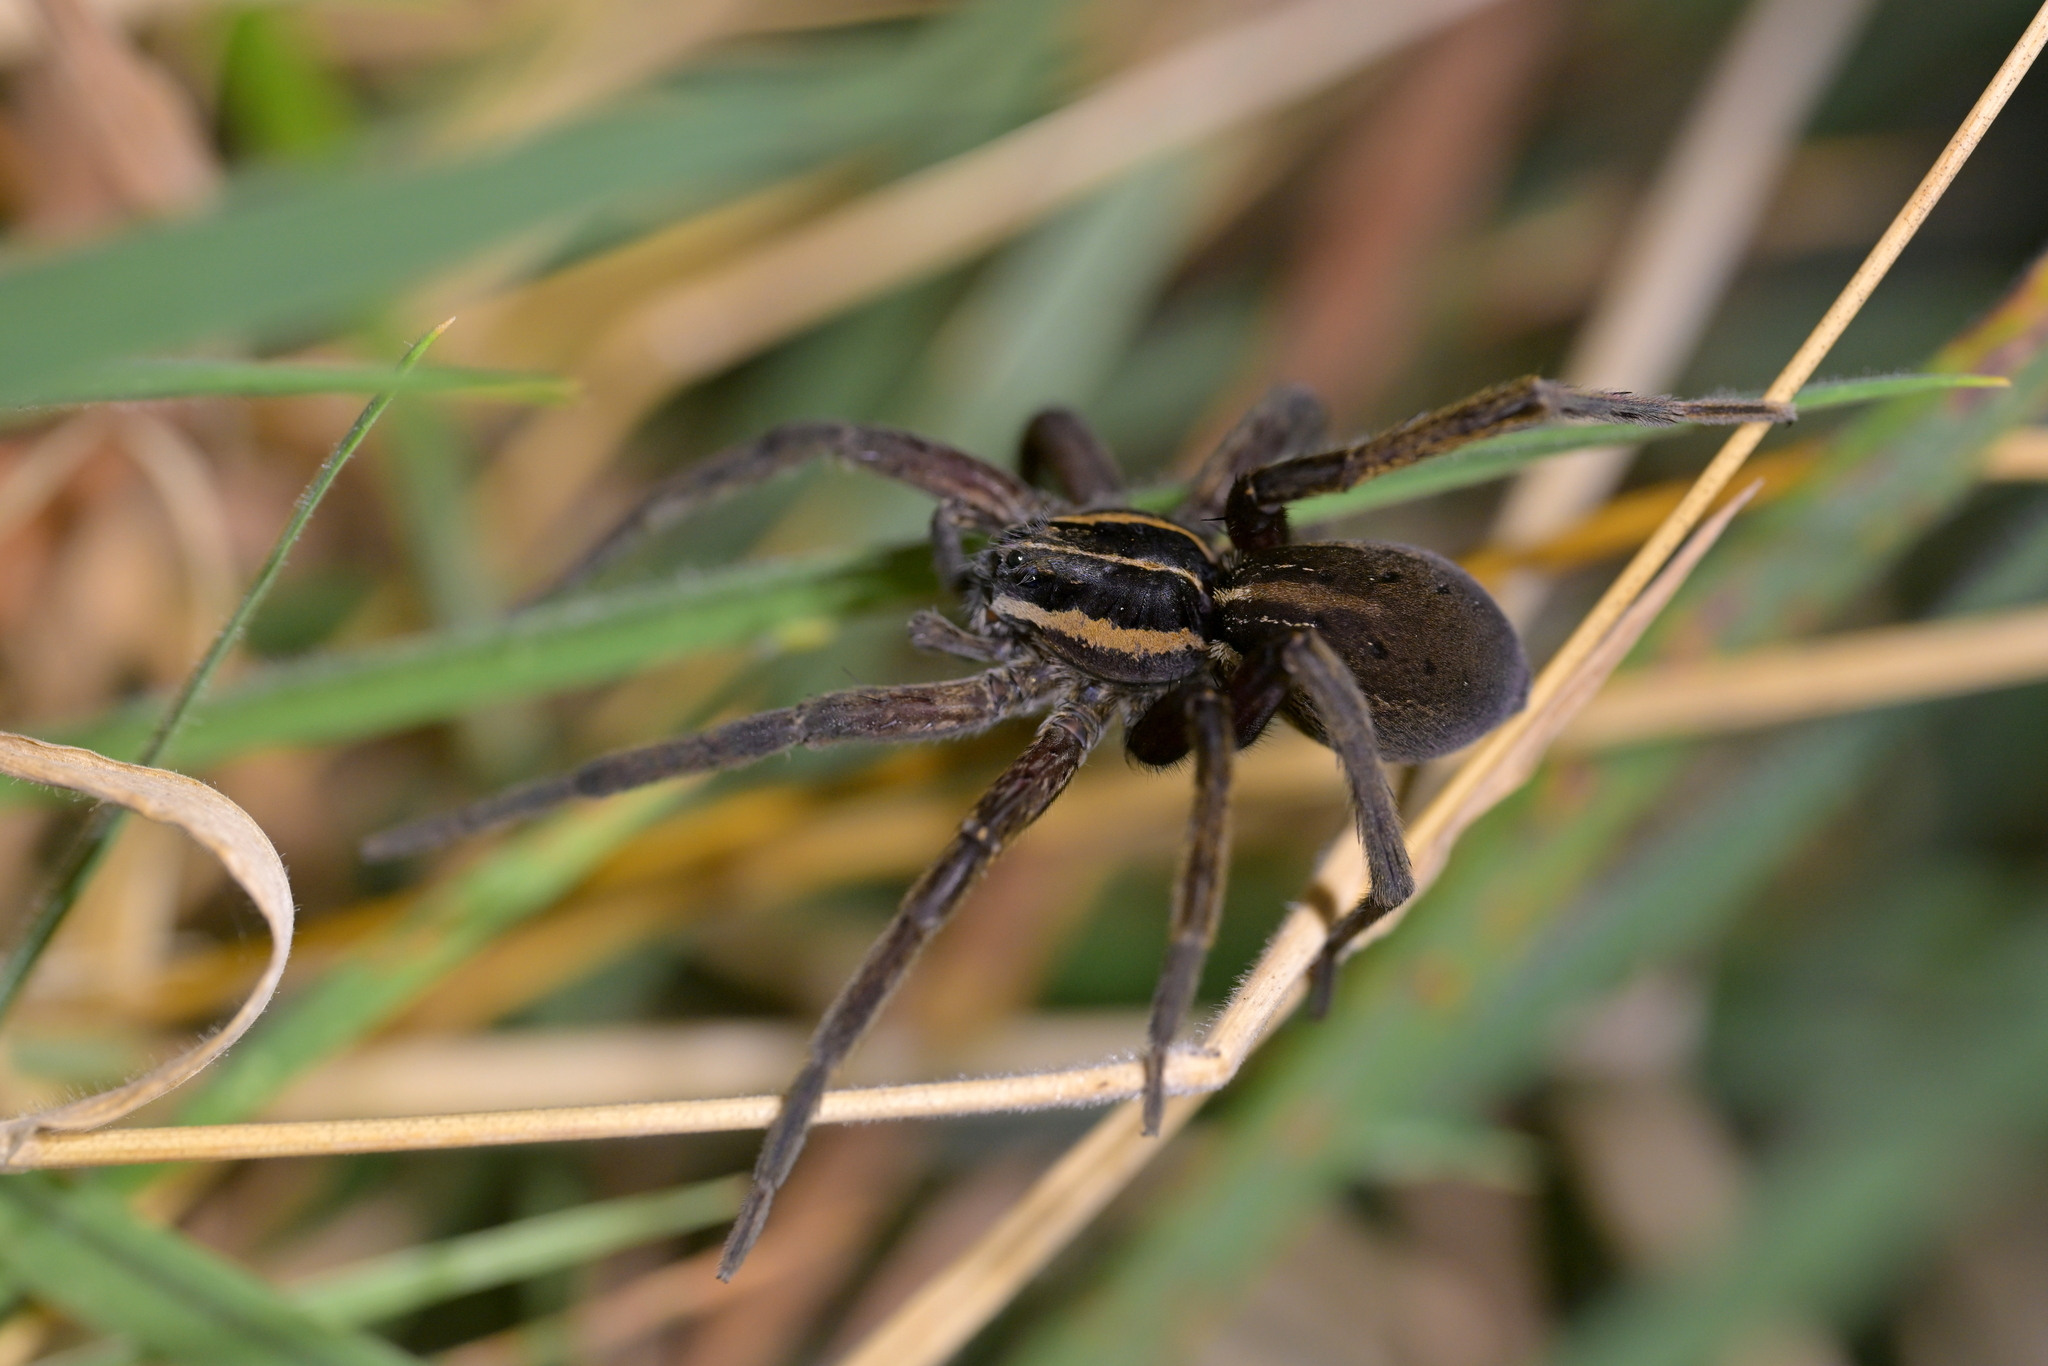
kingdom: Animalia
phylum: Arthropoda
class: Arachnida
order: Araneae
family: Pisauridae
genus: Dolomedes
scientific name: Dolomedes minor
